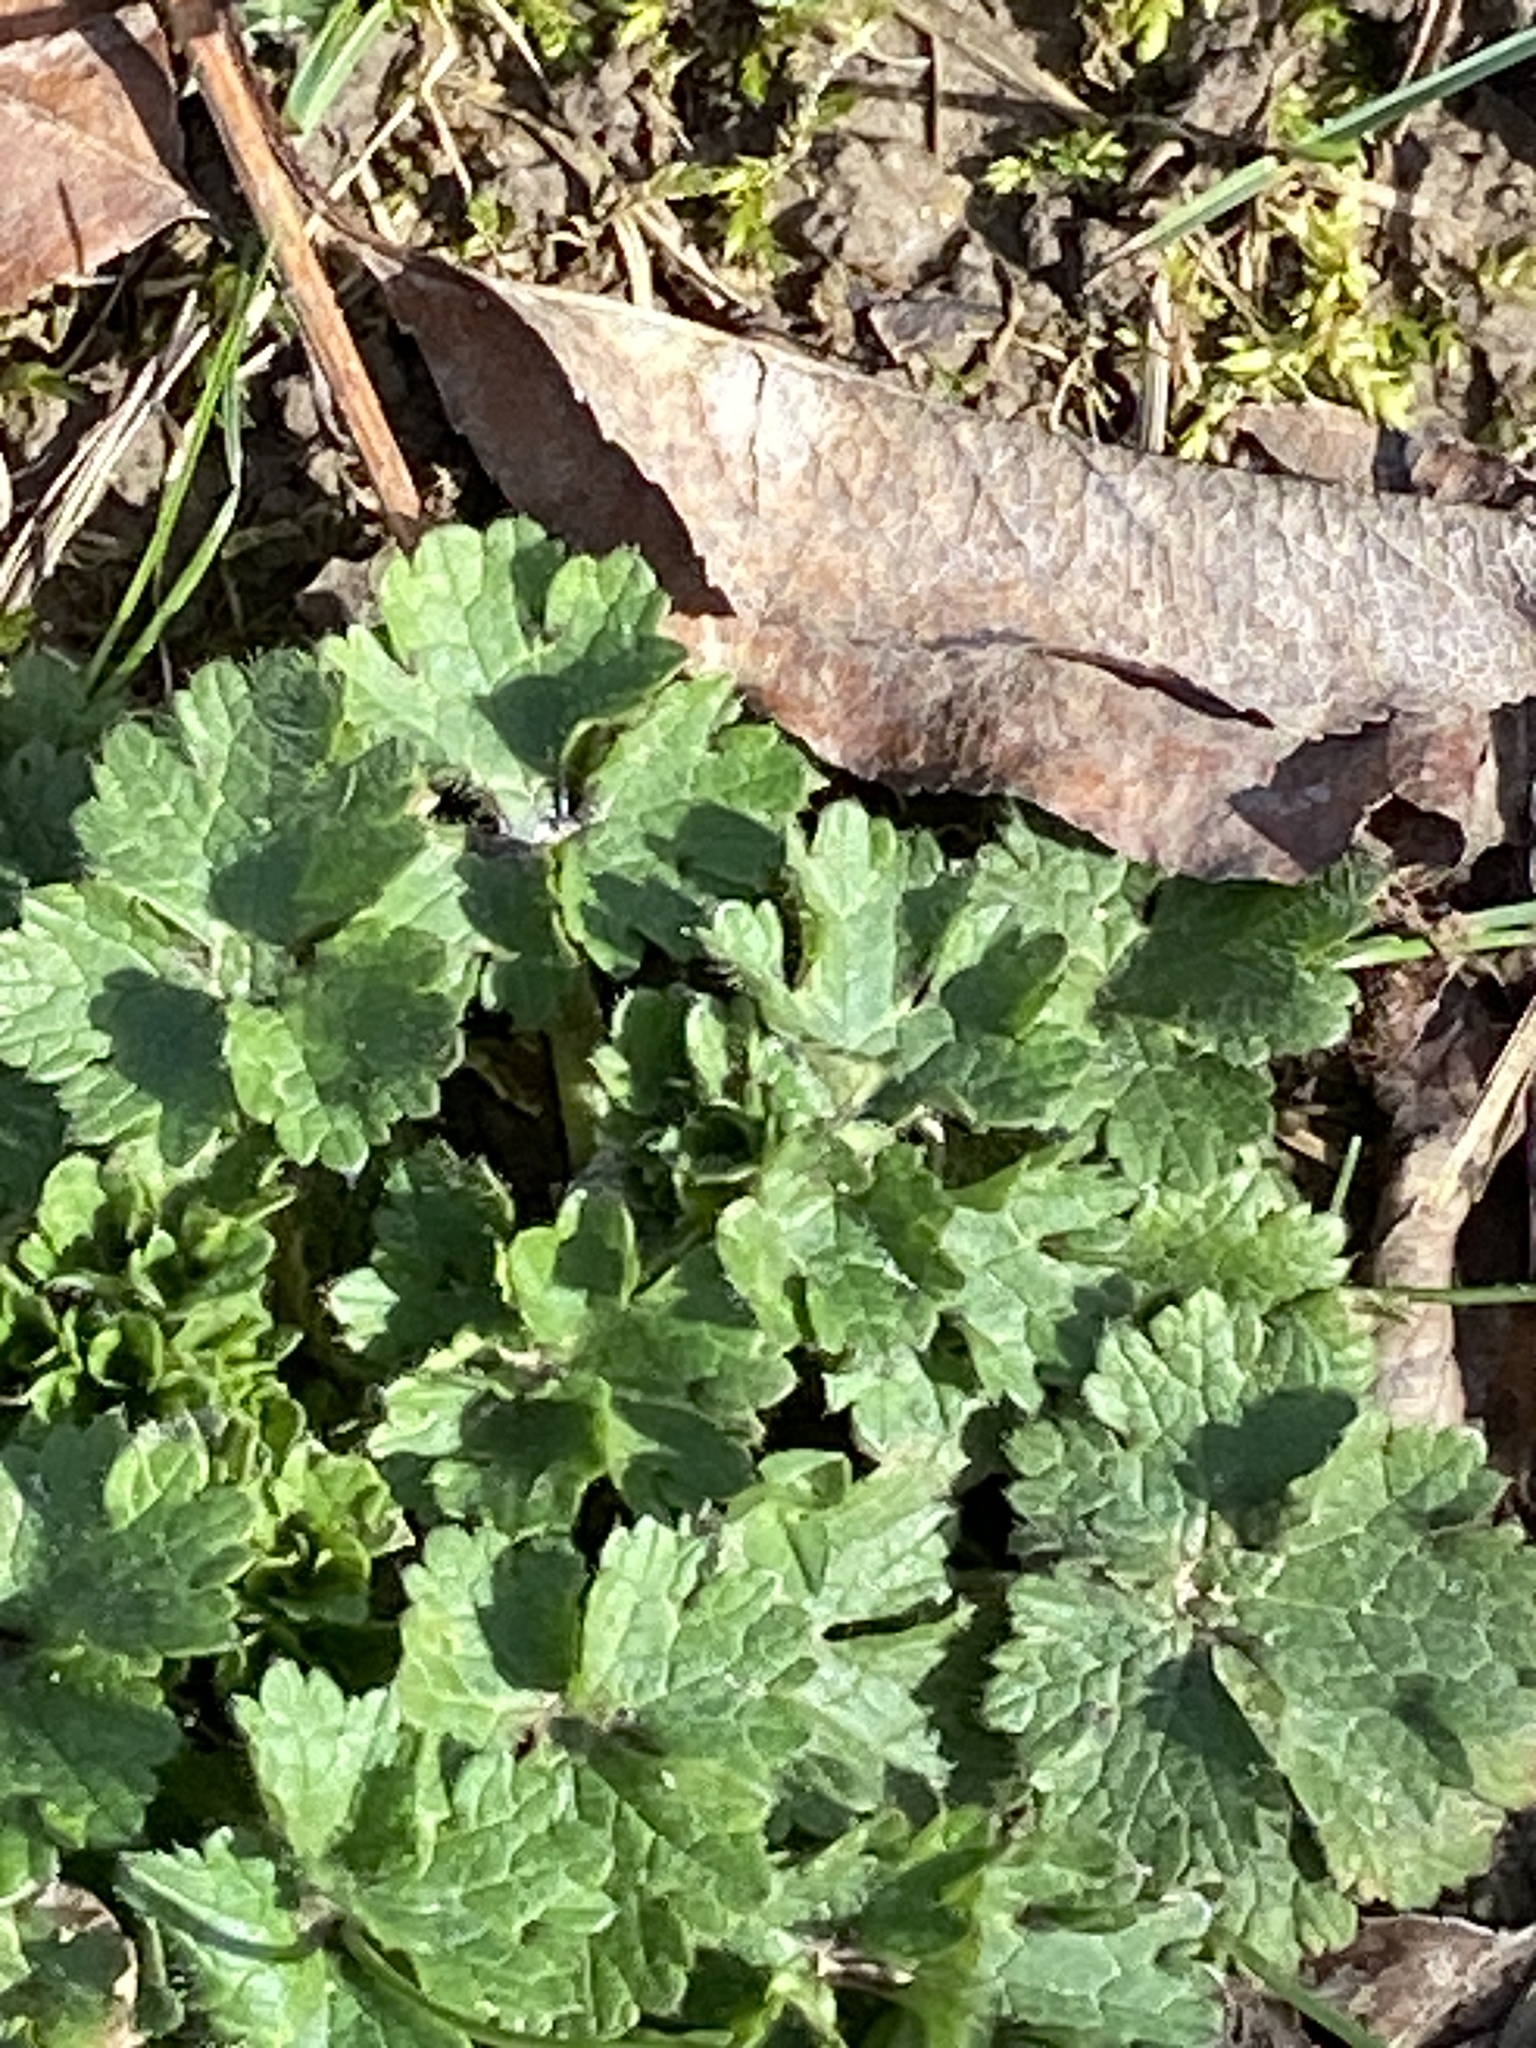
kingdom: Plantae
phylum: Tracheophyta
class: Magnoliopsida
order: Ranunculales
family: Ranunculaceae
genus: Ranunculus
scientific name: Ranunculus bulbosus
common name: Bulbous buttercup
